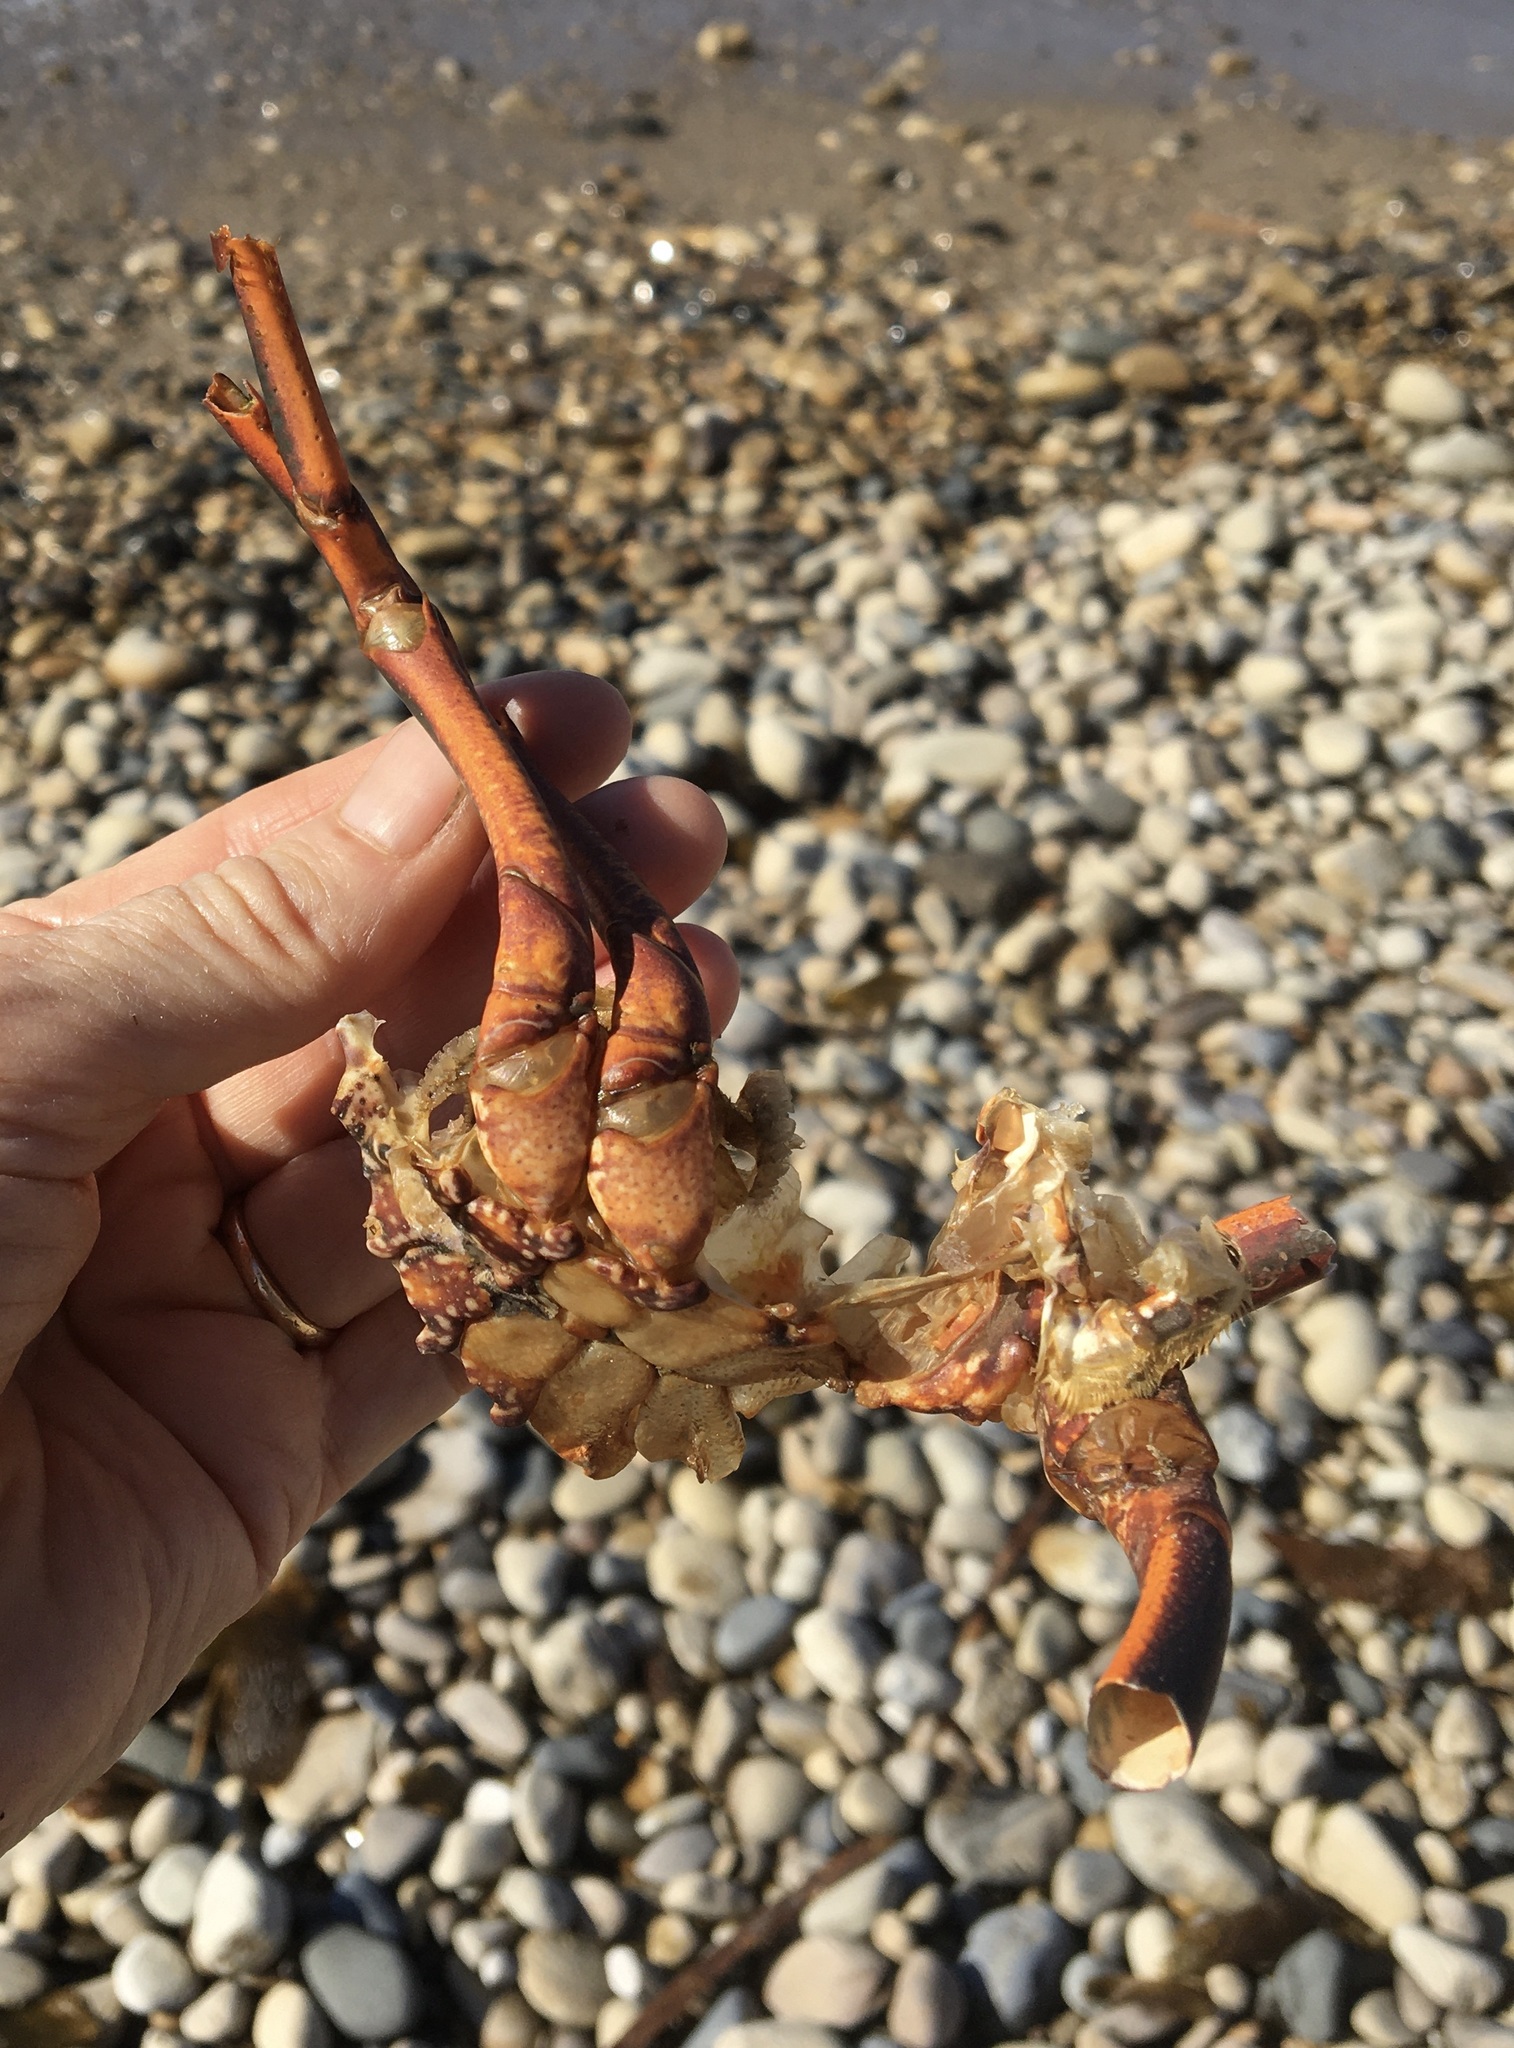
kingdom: Animalia
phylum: Arthropoda
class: Malacostraca
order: Decapoda
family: Palinuridae
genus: Panulirus
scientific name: Panulirus interruptus
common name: California spiny lobster
